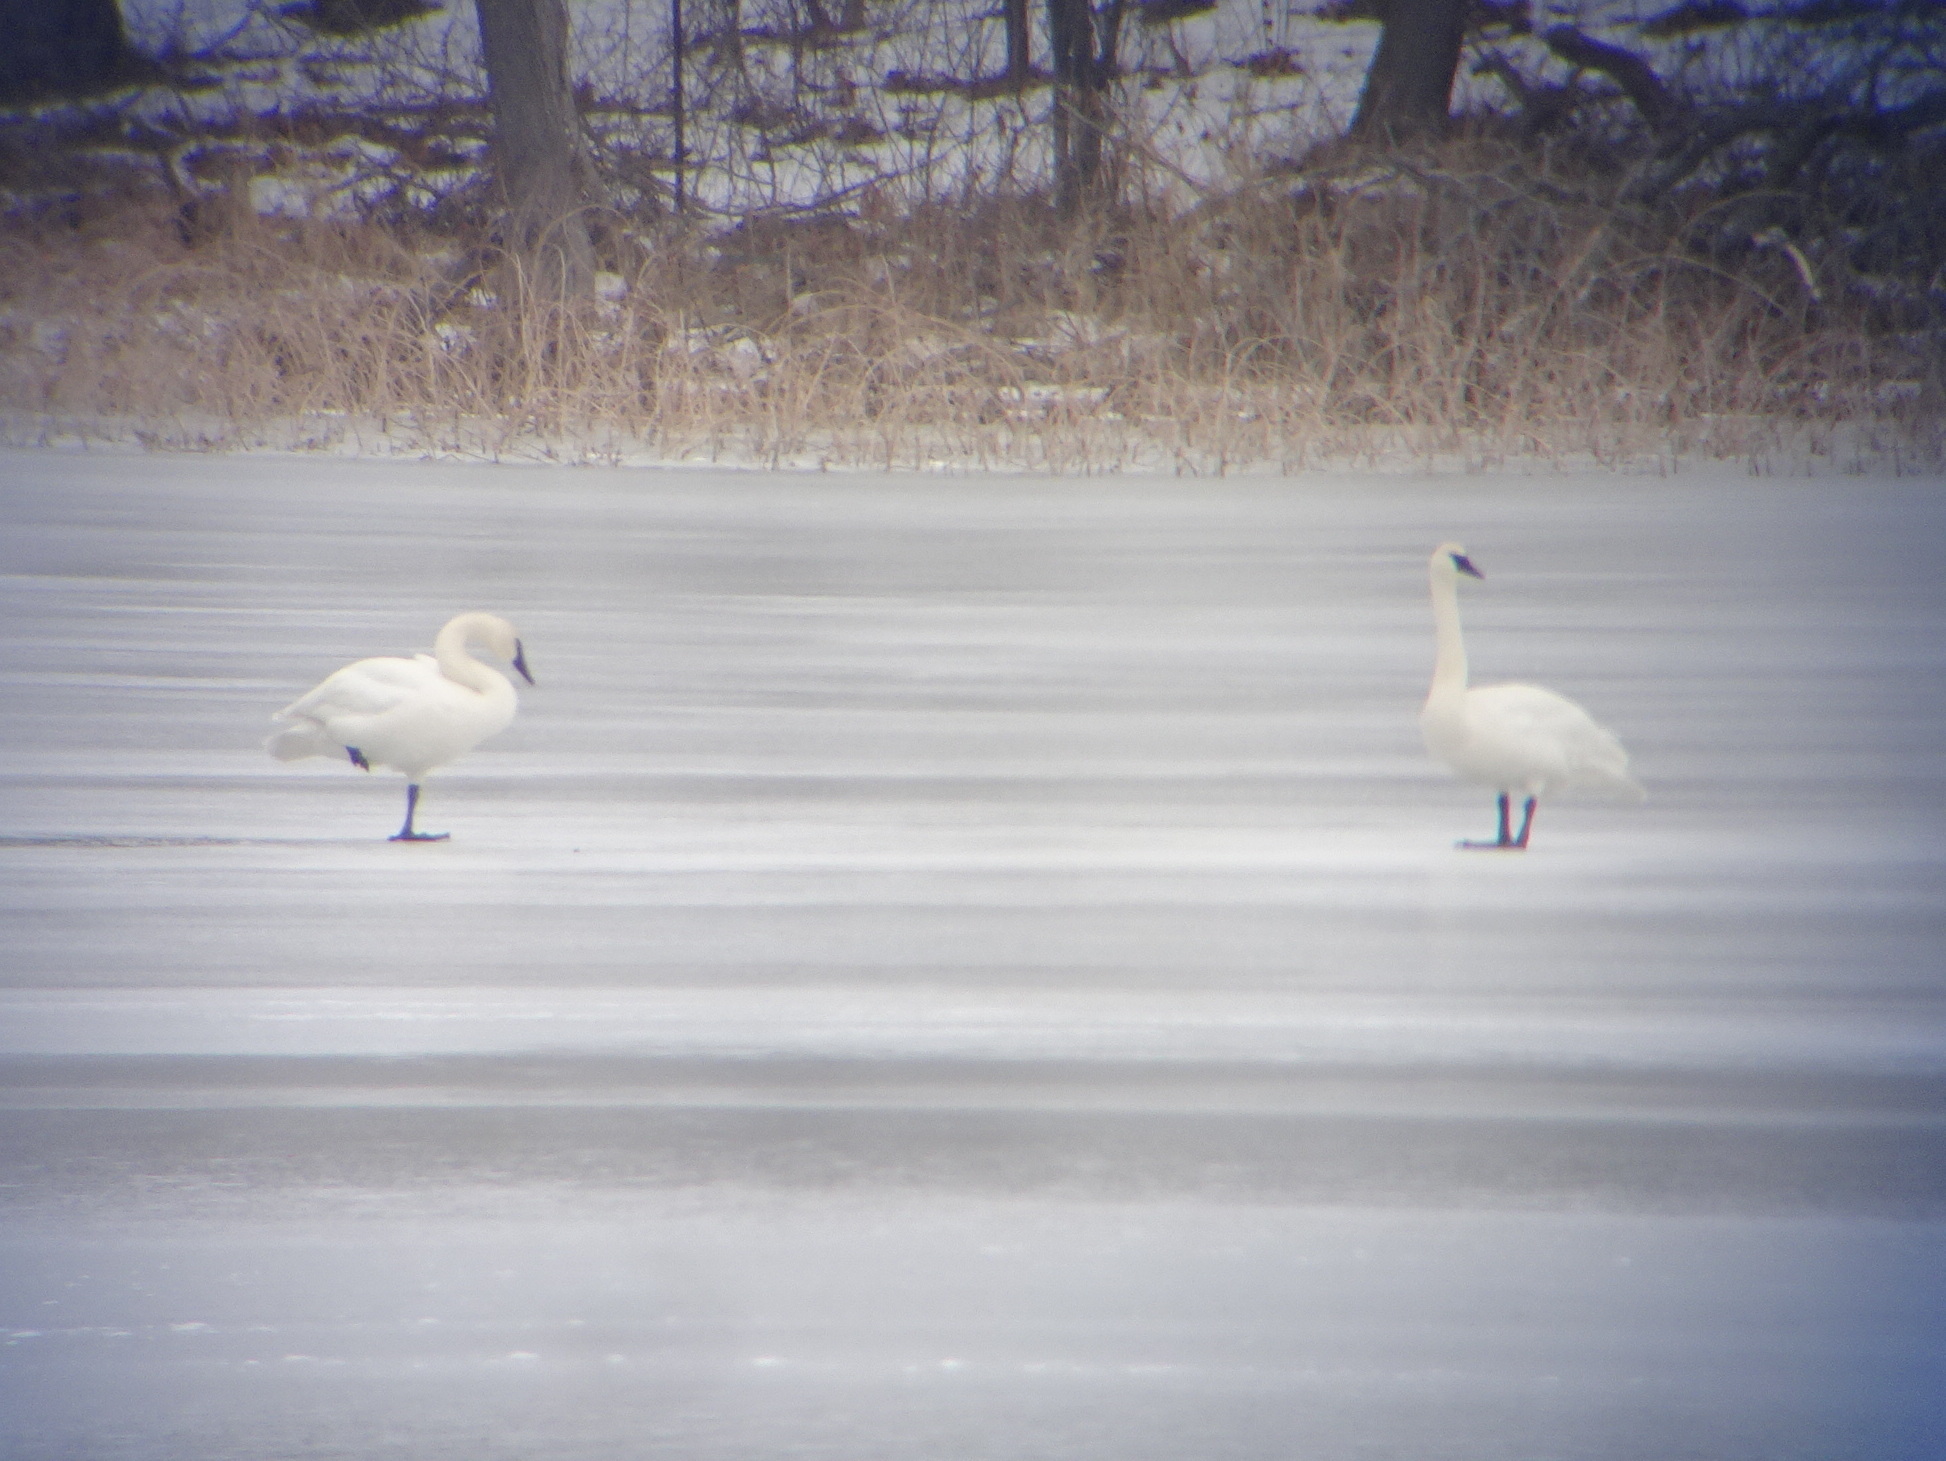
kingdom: Animalia
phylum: Chordata
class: Aves
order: Anseriformes
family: Anatidae
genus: Cygnus
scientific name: Cygnus buccinator
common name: Trumpeter swan
